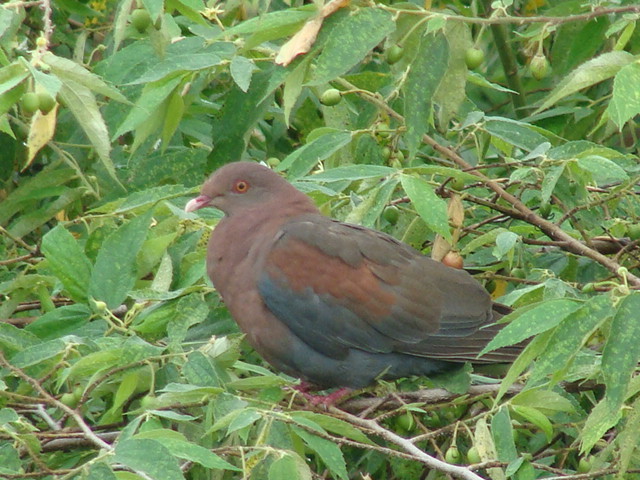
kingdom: Animalia
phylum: Chordata
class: Aves
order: Columbiformes
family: Columbidae
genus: Patagioenas
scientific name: Patagioenas flavirostris
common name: Red-billed pigeon
